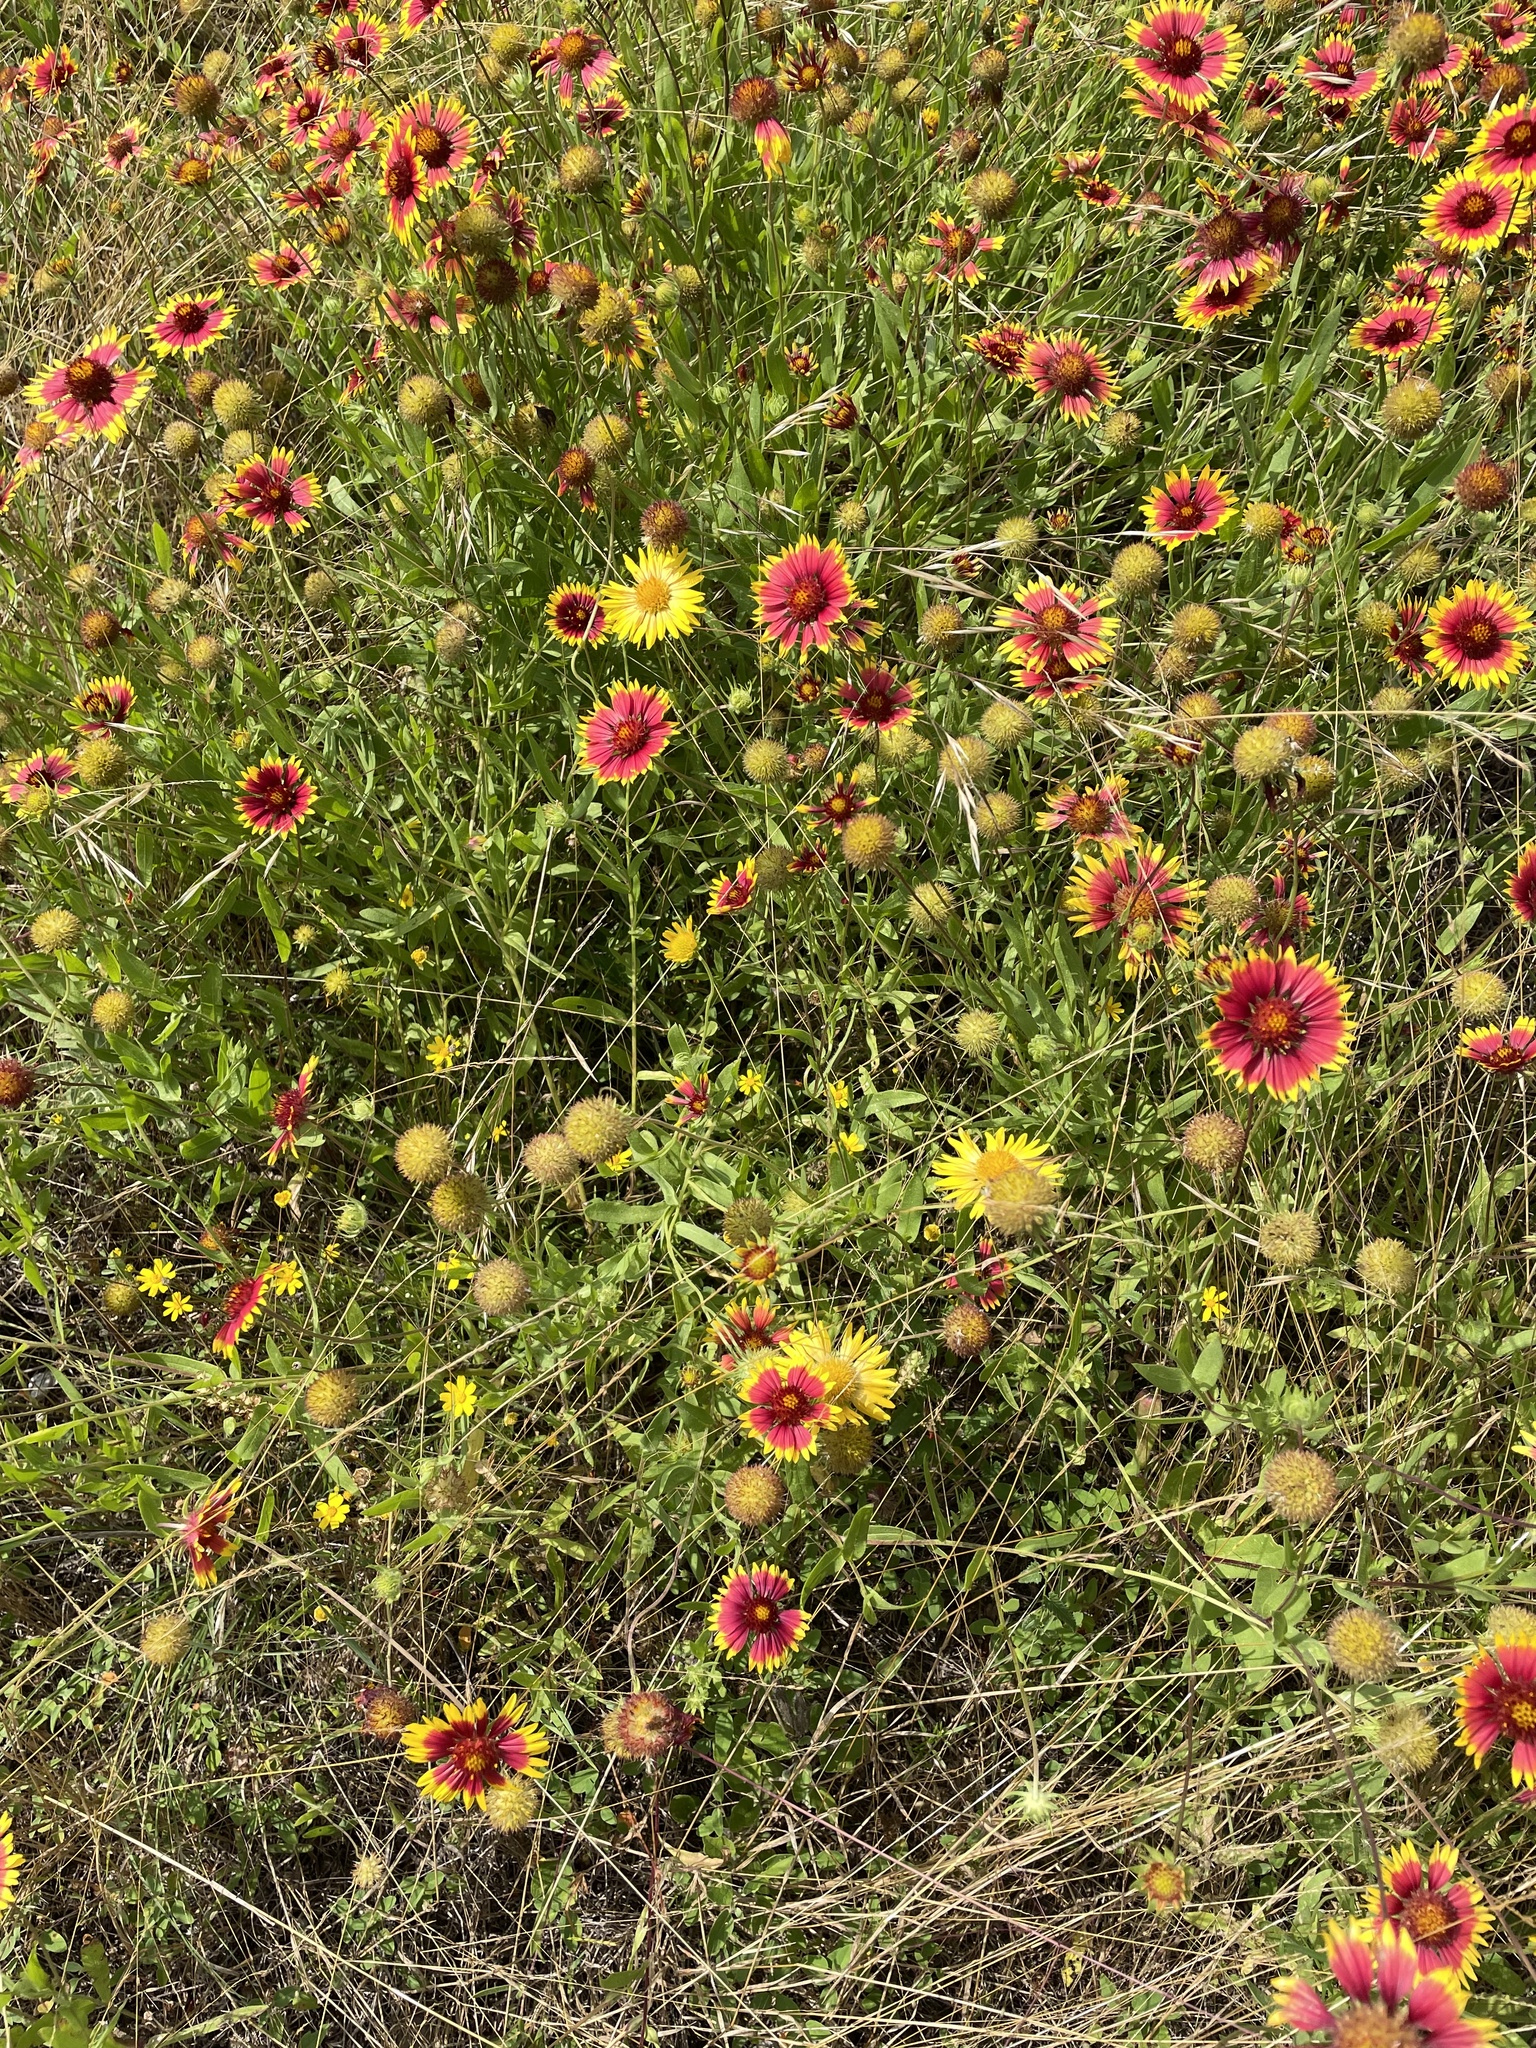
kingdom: Plantae
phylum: Tracheophyta
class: Magnoliopsida
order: Asterales
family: Asteraceae
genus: Gaillardia
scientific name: Gaillardia pulchella
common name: Firewheel
